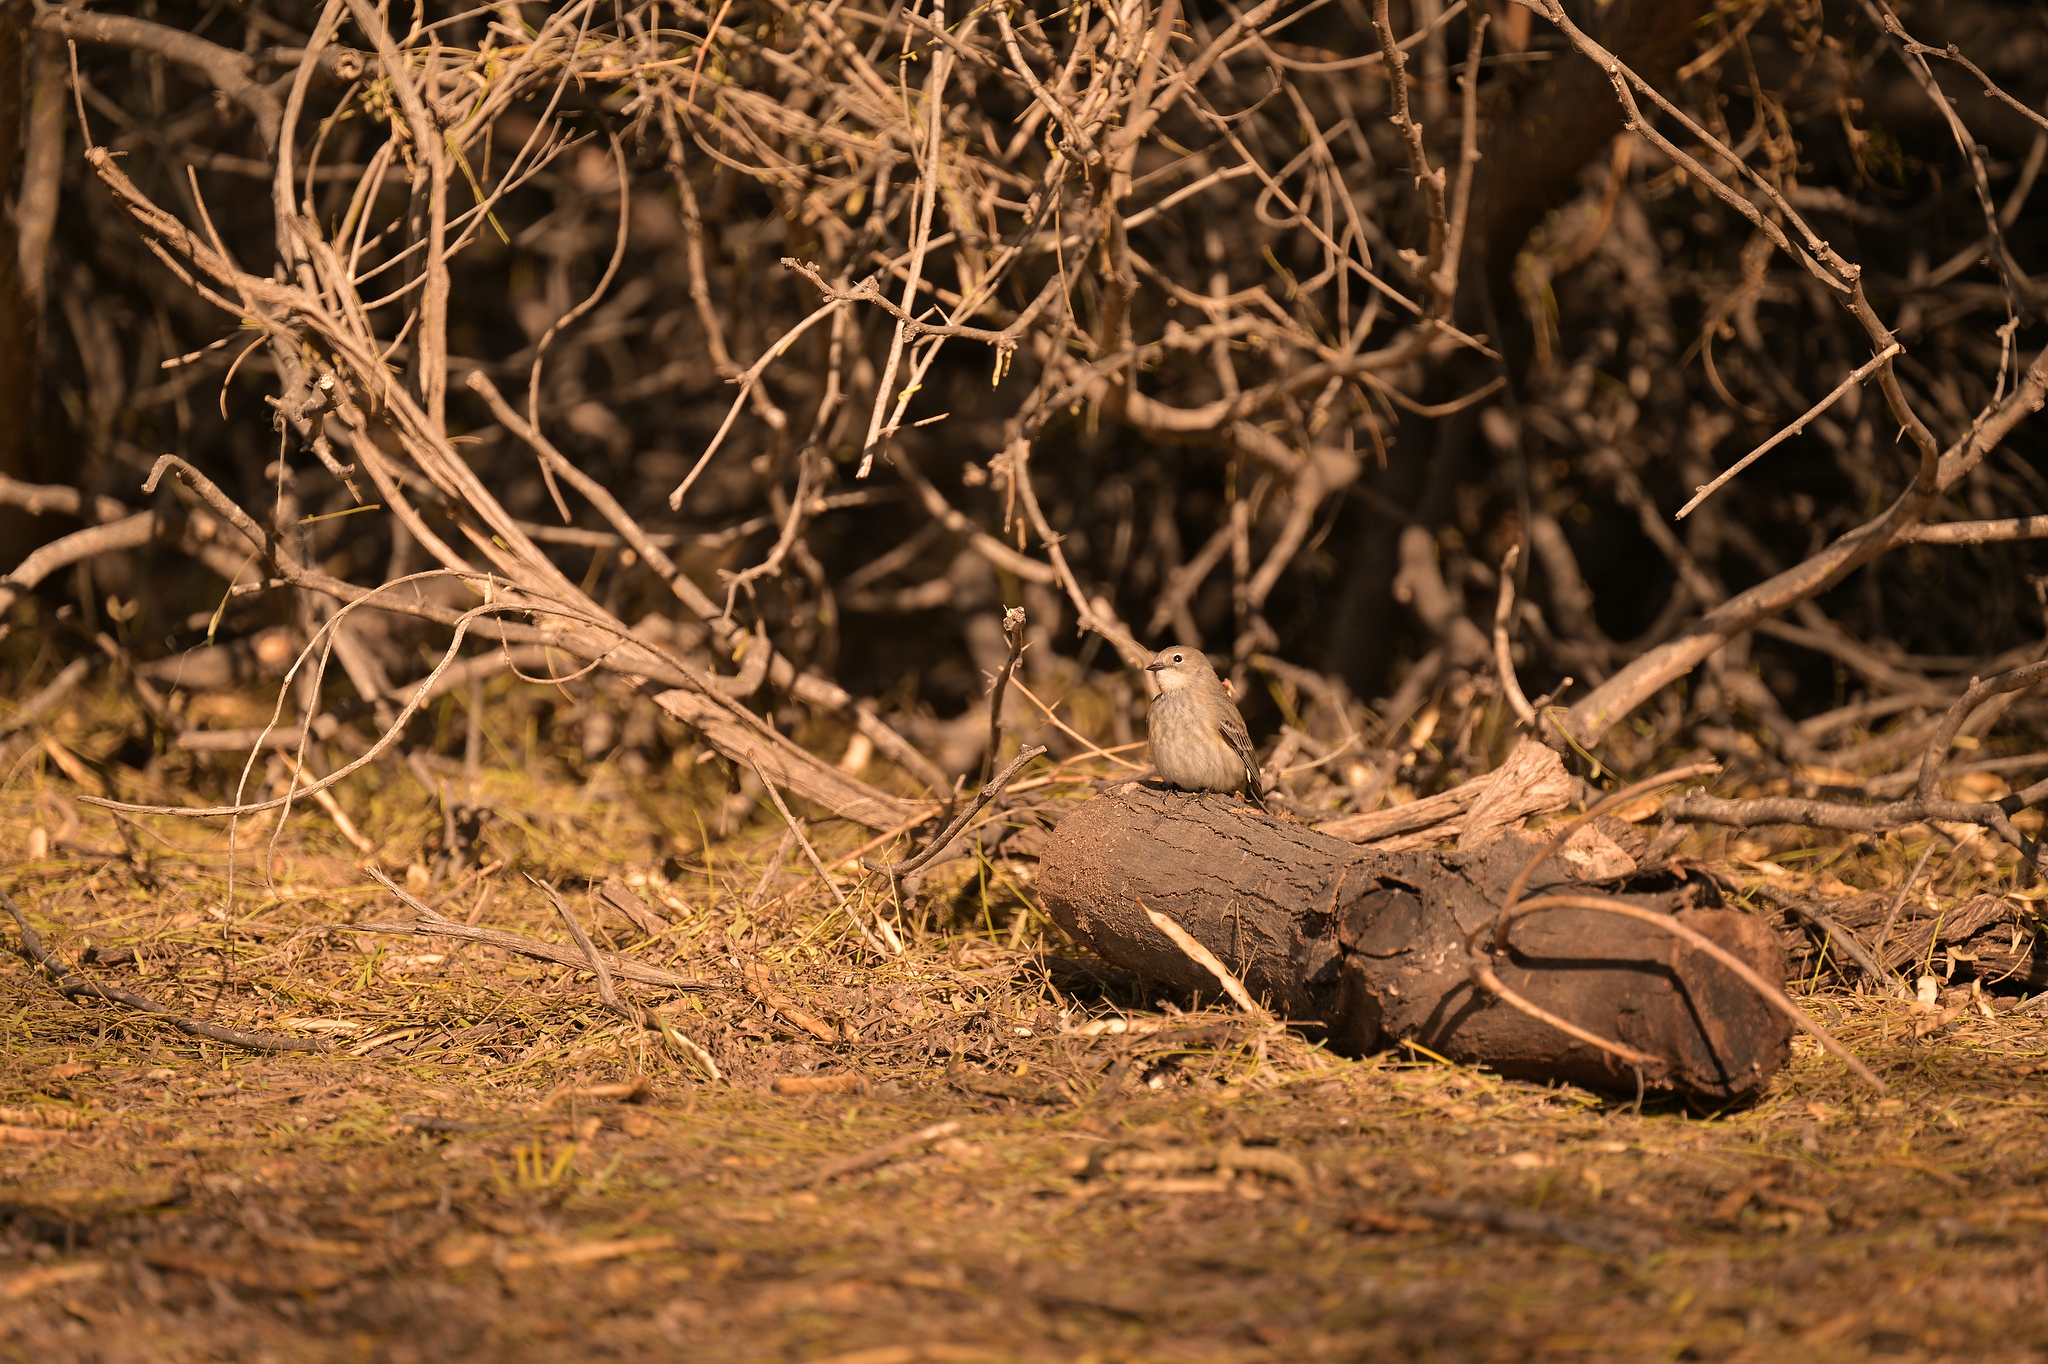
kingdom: Animalia
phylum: Chordata
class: Aves
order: Passeriformes
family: Parulidae
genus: Setophaga
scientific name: Setophaga coronata
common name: Myrtle warbler
